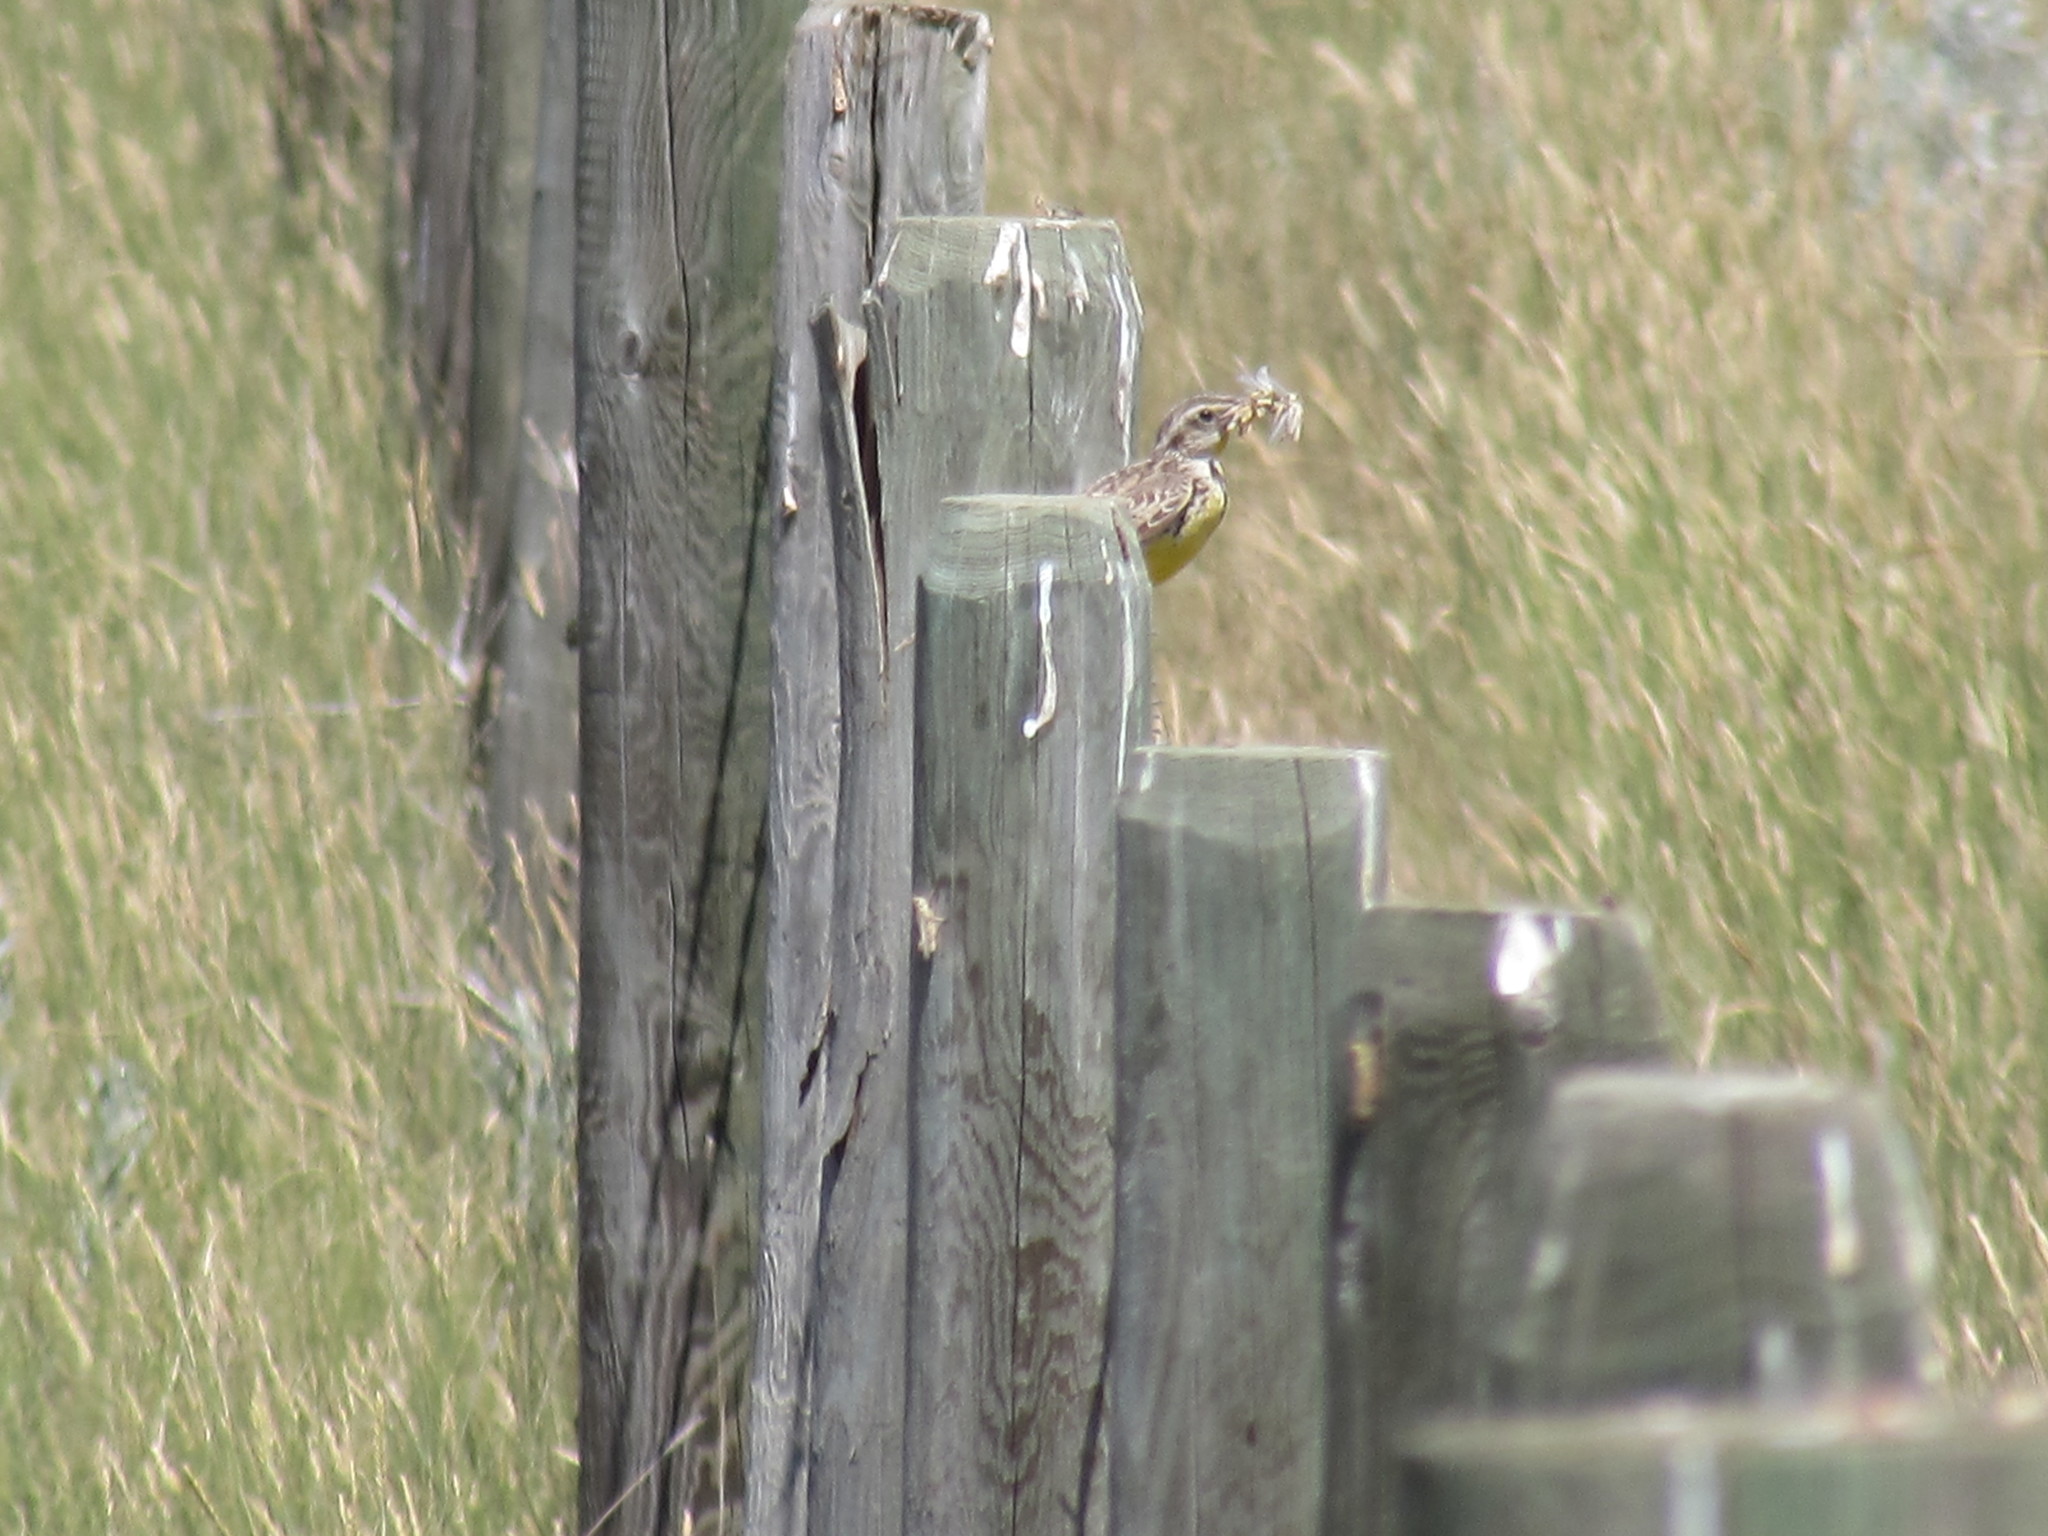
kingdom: Animalia
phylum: Chordata
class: Aves
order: Passeriformes
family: Icteridae
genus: Sturnella
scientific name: Sturnella neglecta
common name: Western meadowlark
